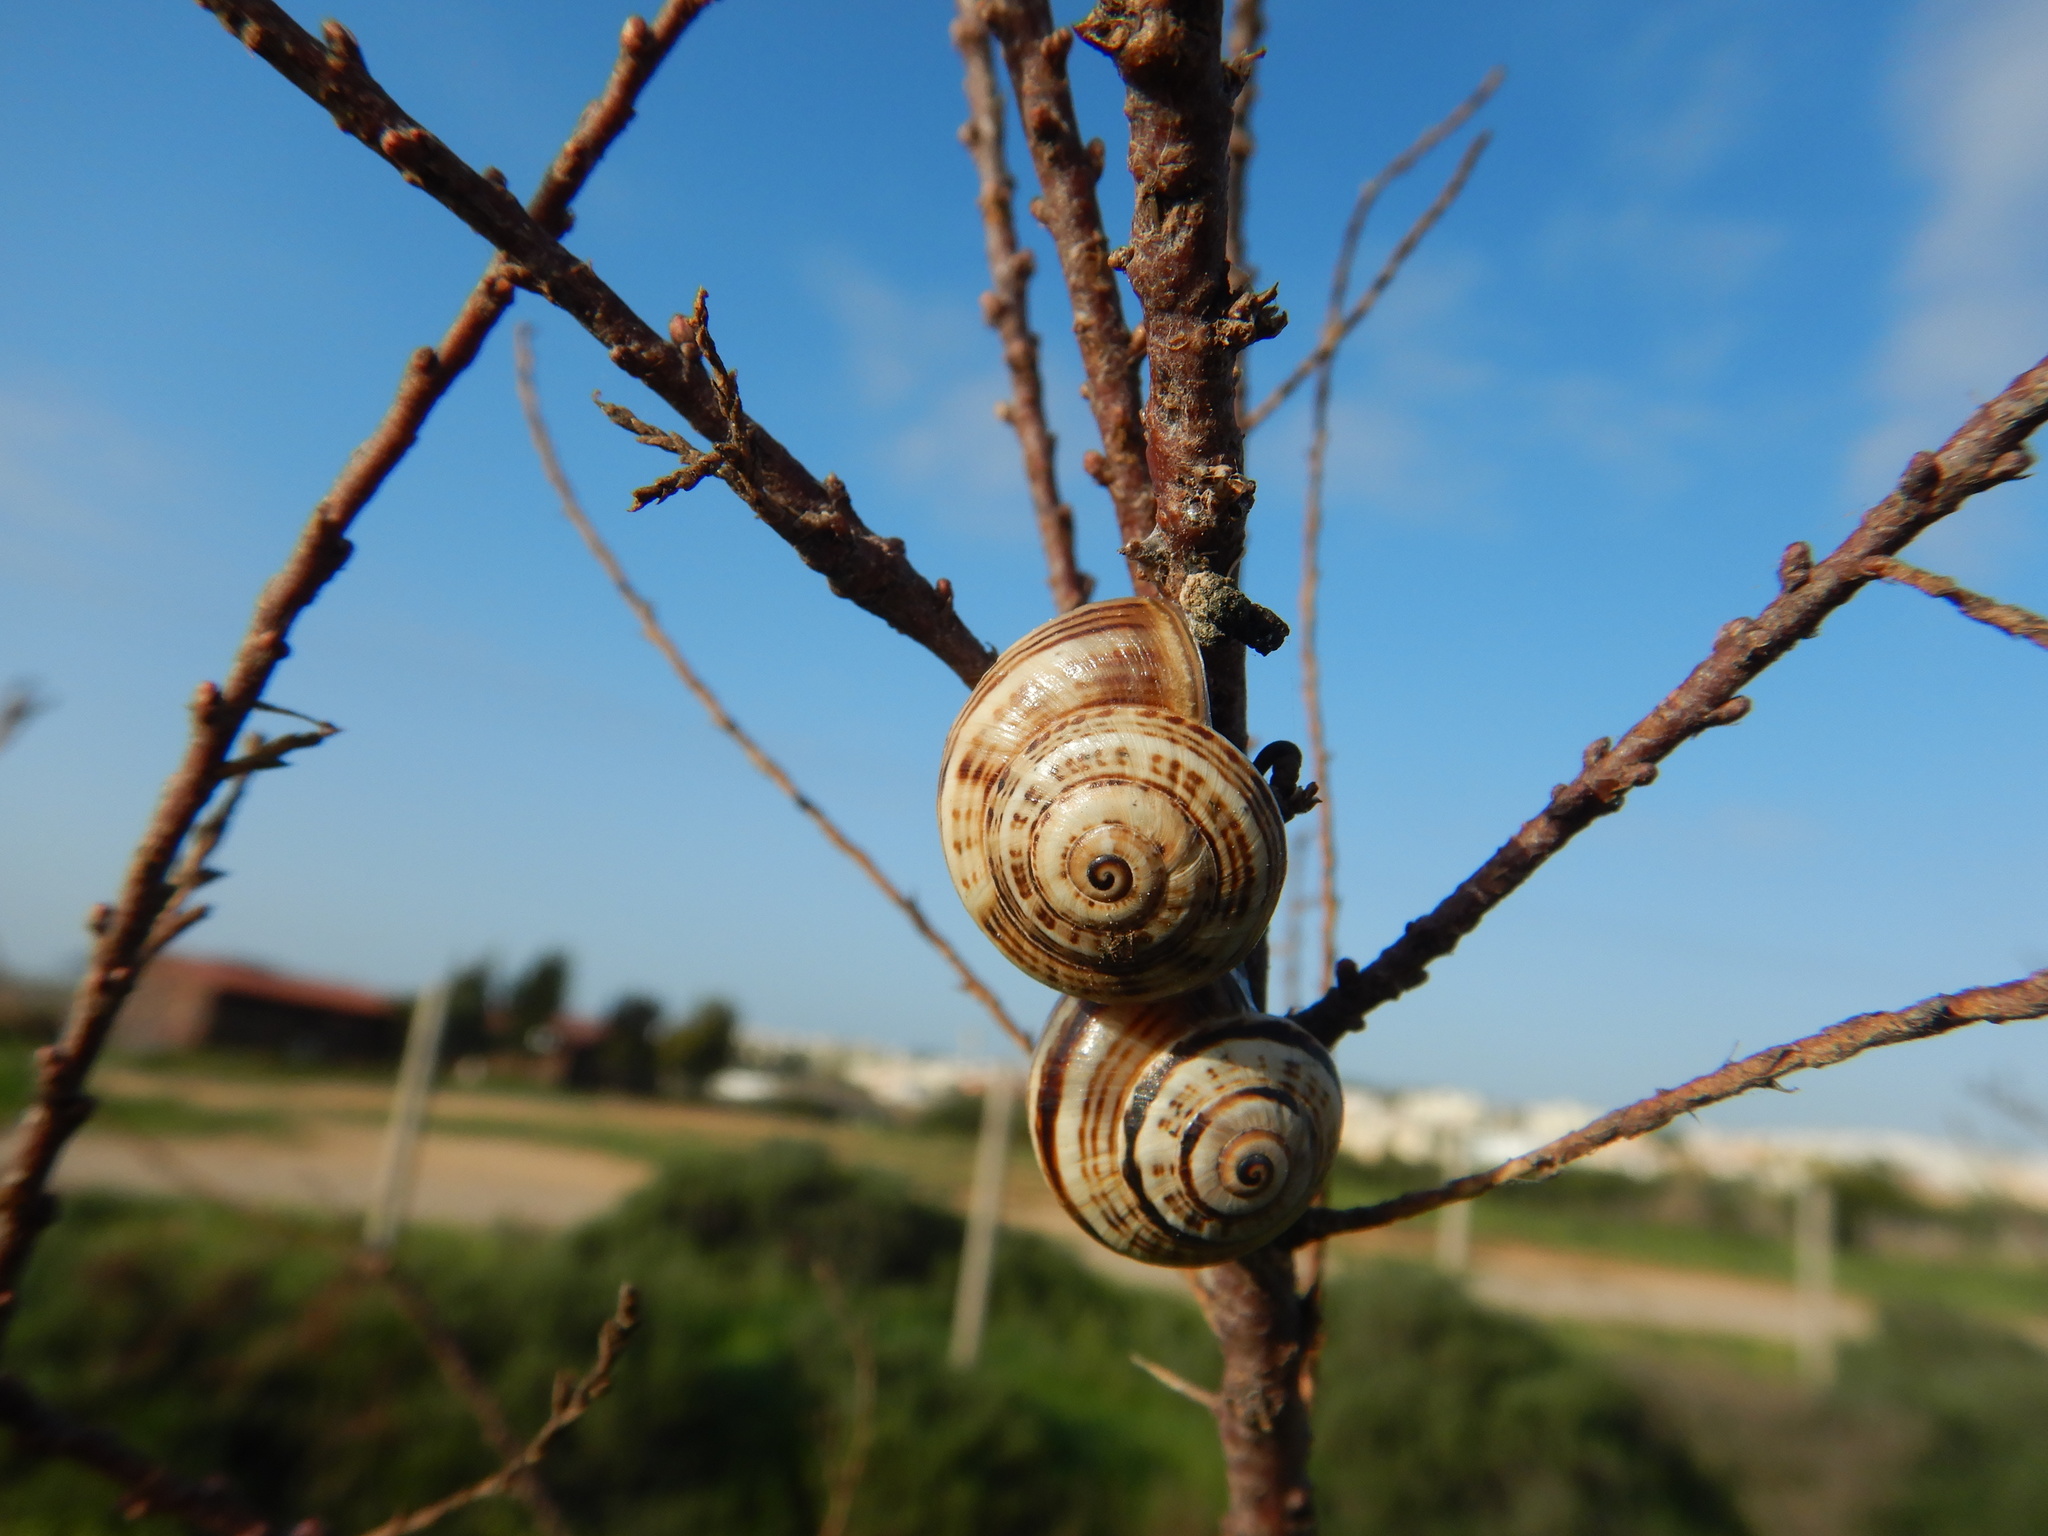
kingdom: Animalia
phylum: Mollusca
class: Gastropoda
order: Stylommatophora
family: Helicidae
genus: Theba
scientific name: Theba pisana
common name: White snail
